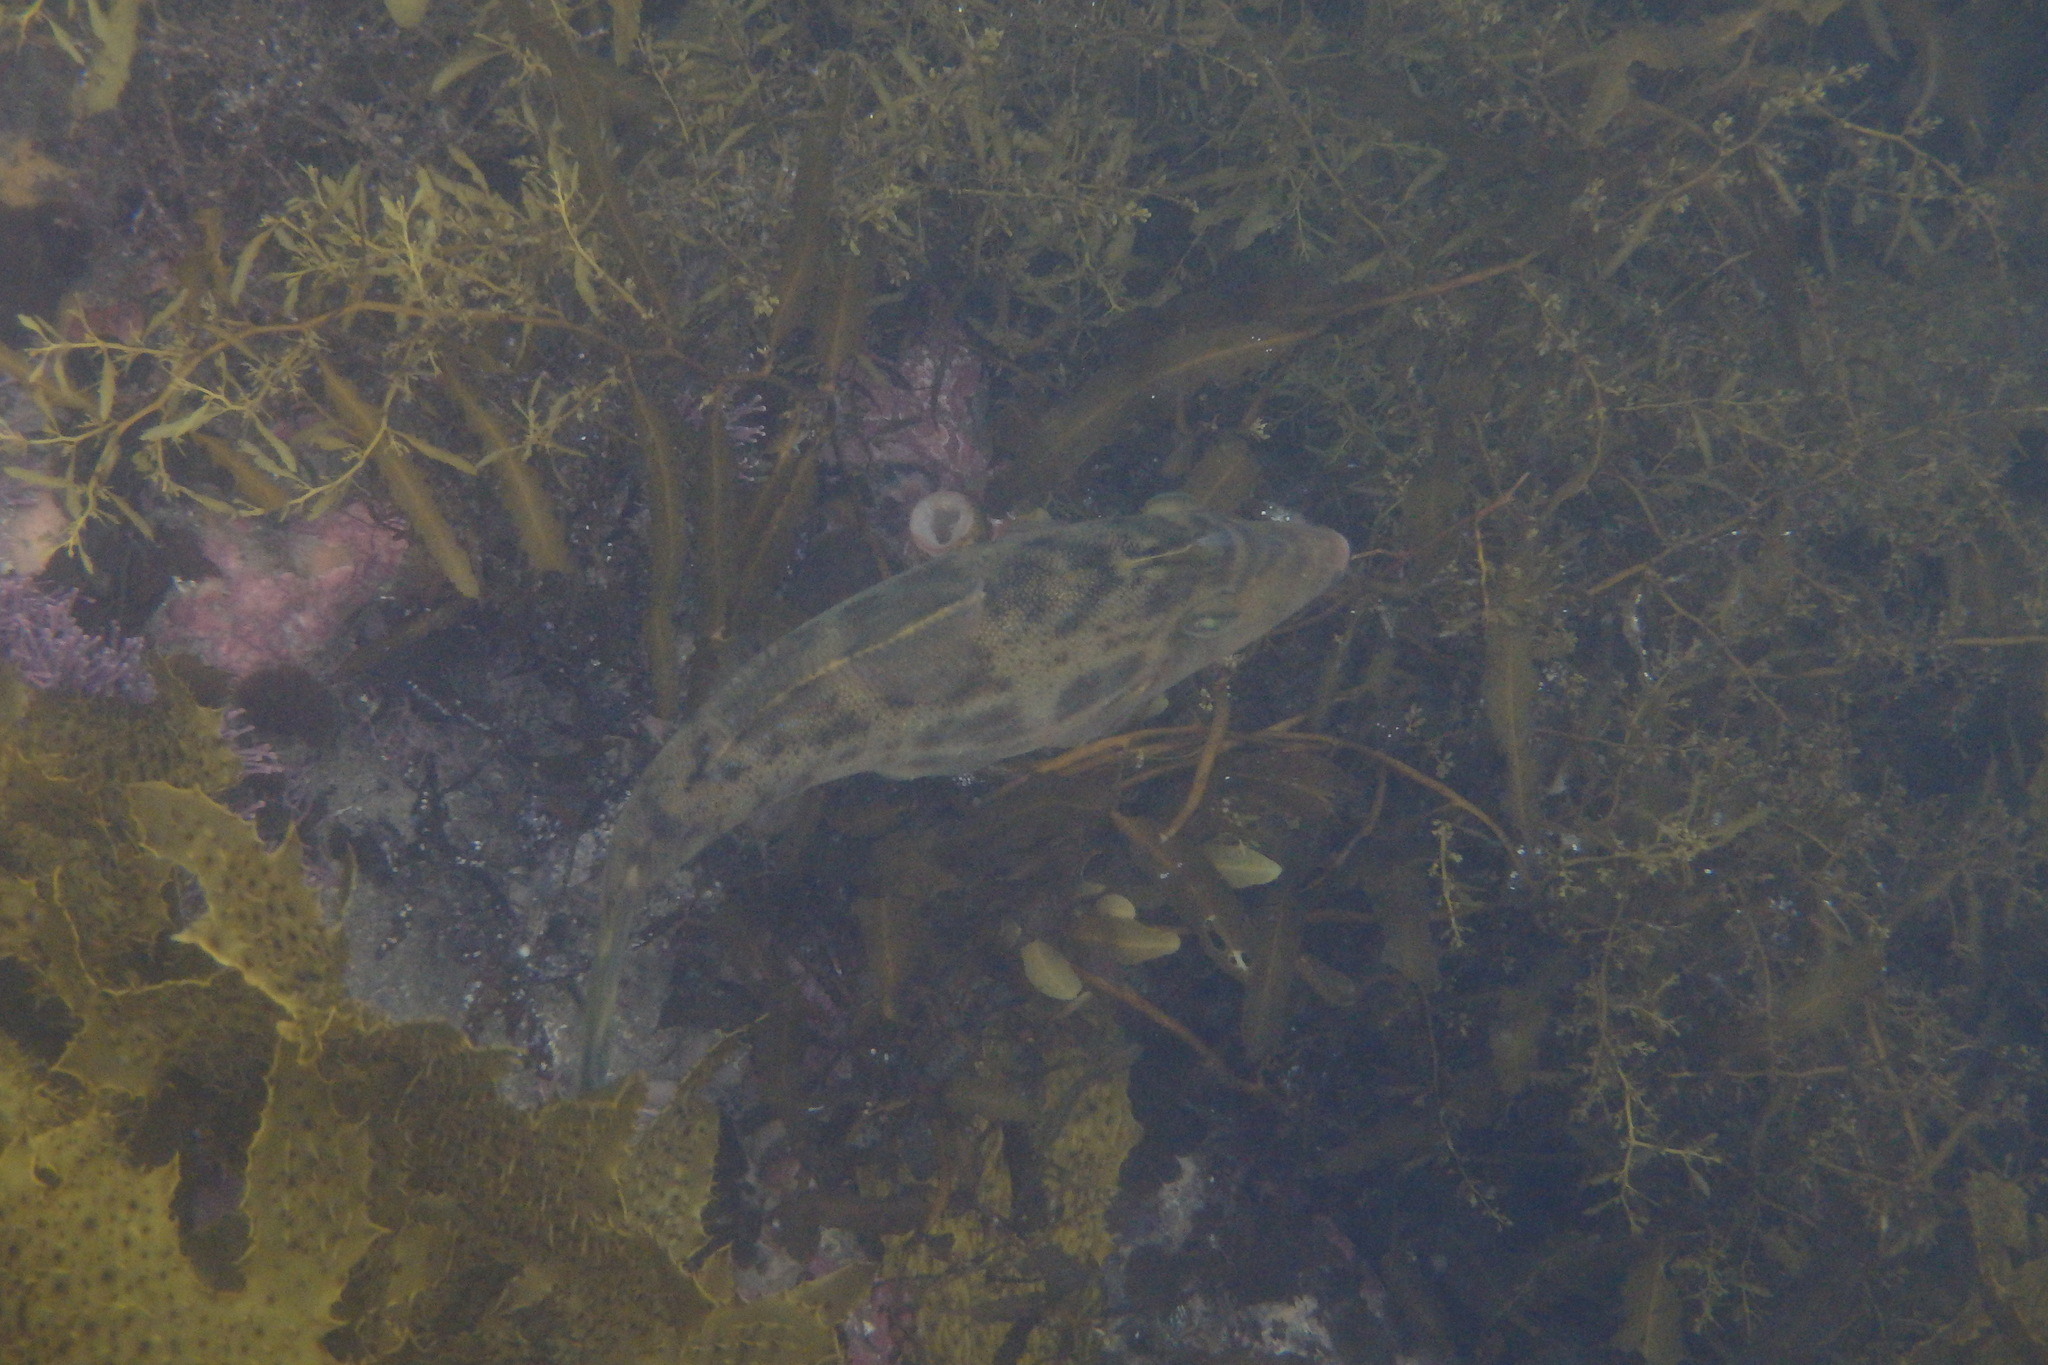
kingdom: Animalia
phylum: Chordata
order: Tetraodontiformes
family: Monacanthidae
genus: Scobinichthys
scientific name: Scobinichthys granulatus
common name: Rough leatherjacket
